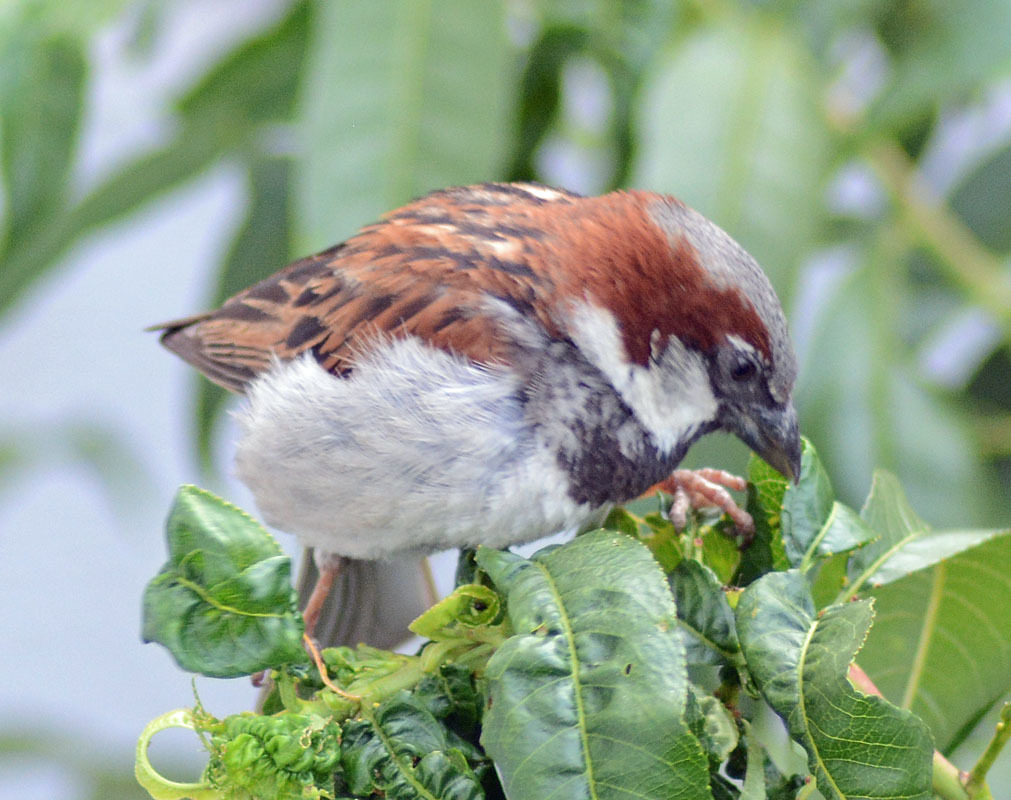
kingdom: Animalia
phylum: Chordata
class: Aves
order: Passeriformes
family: Passeridae
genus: Passer
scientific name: Passer domesticus
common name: House sparrow
